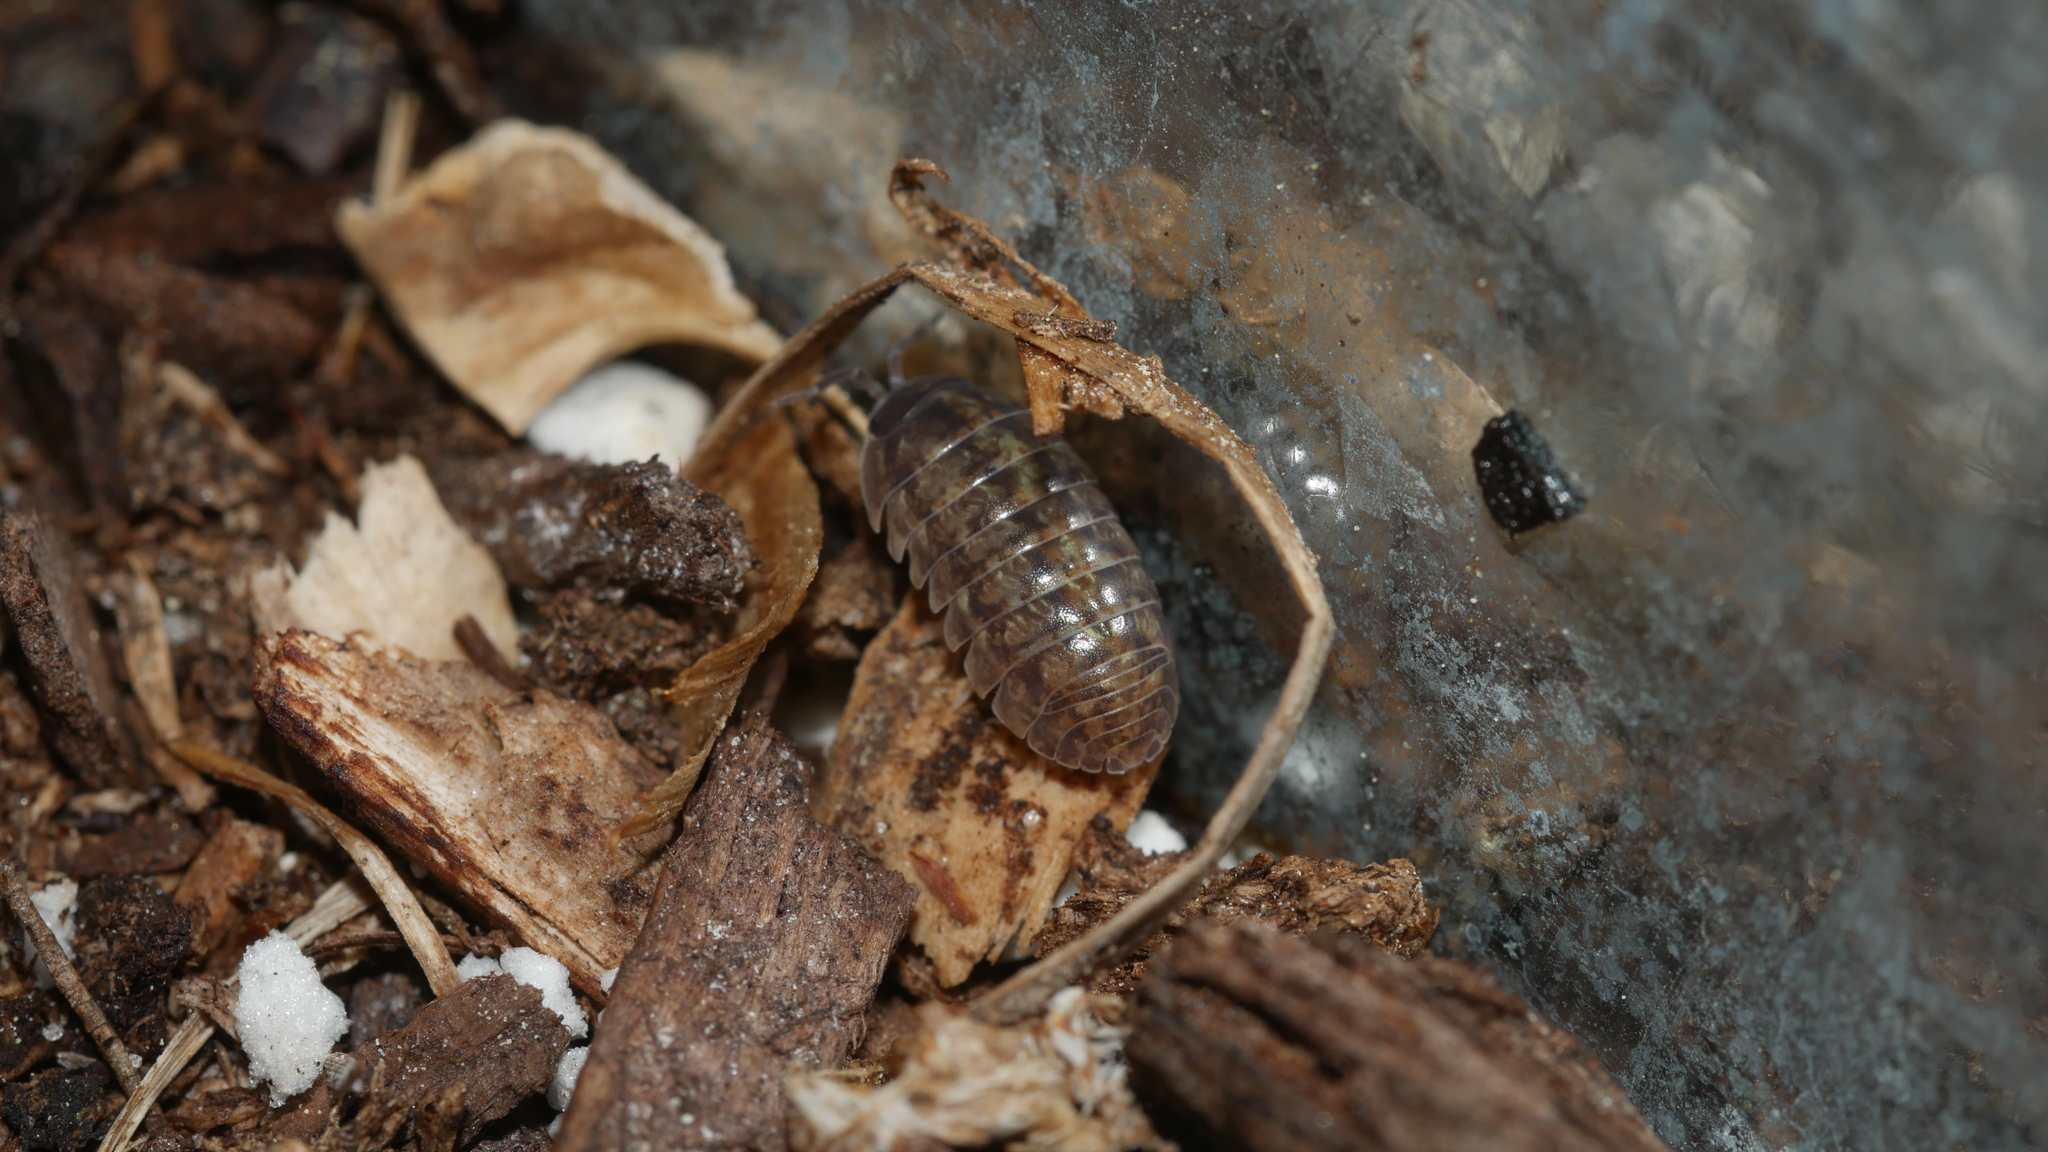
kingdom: Animalia
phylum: Arthropoda
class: Malacostraca
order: Isopoda
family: Armadillidiidae
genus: Armadillidium
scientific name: Armadillidium vulgare
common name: Common pill woodlouse
